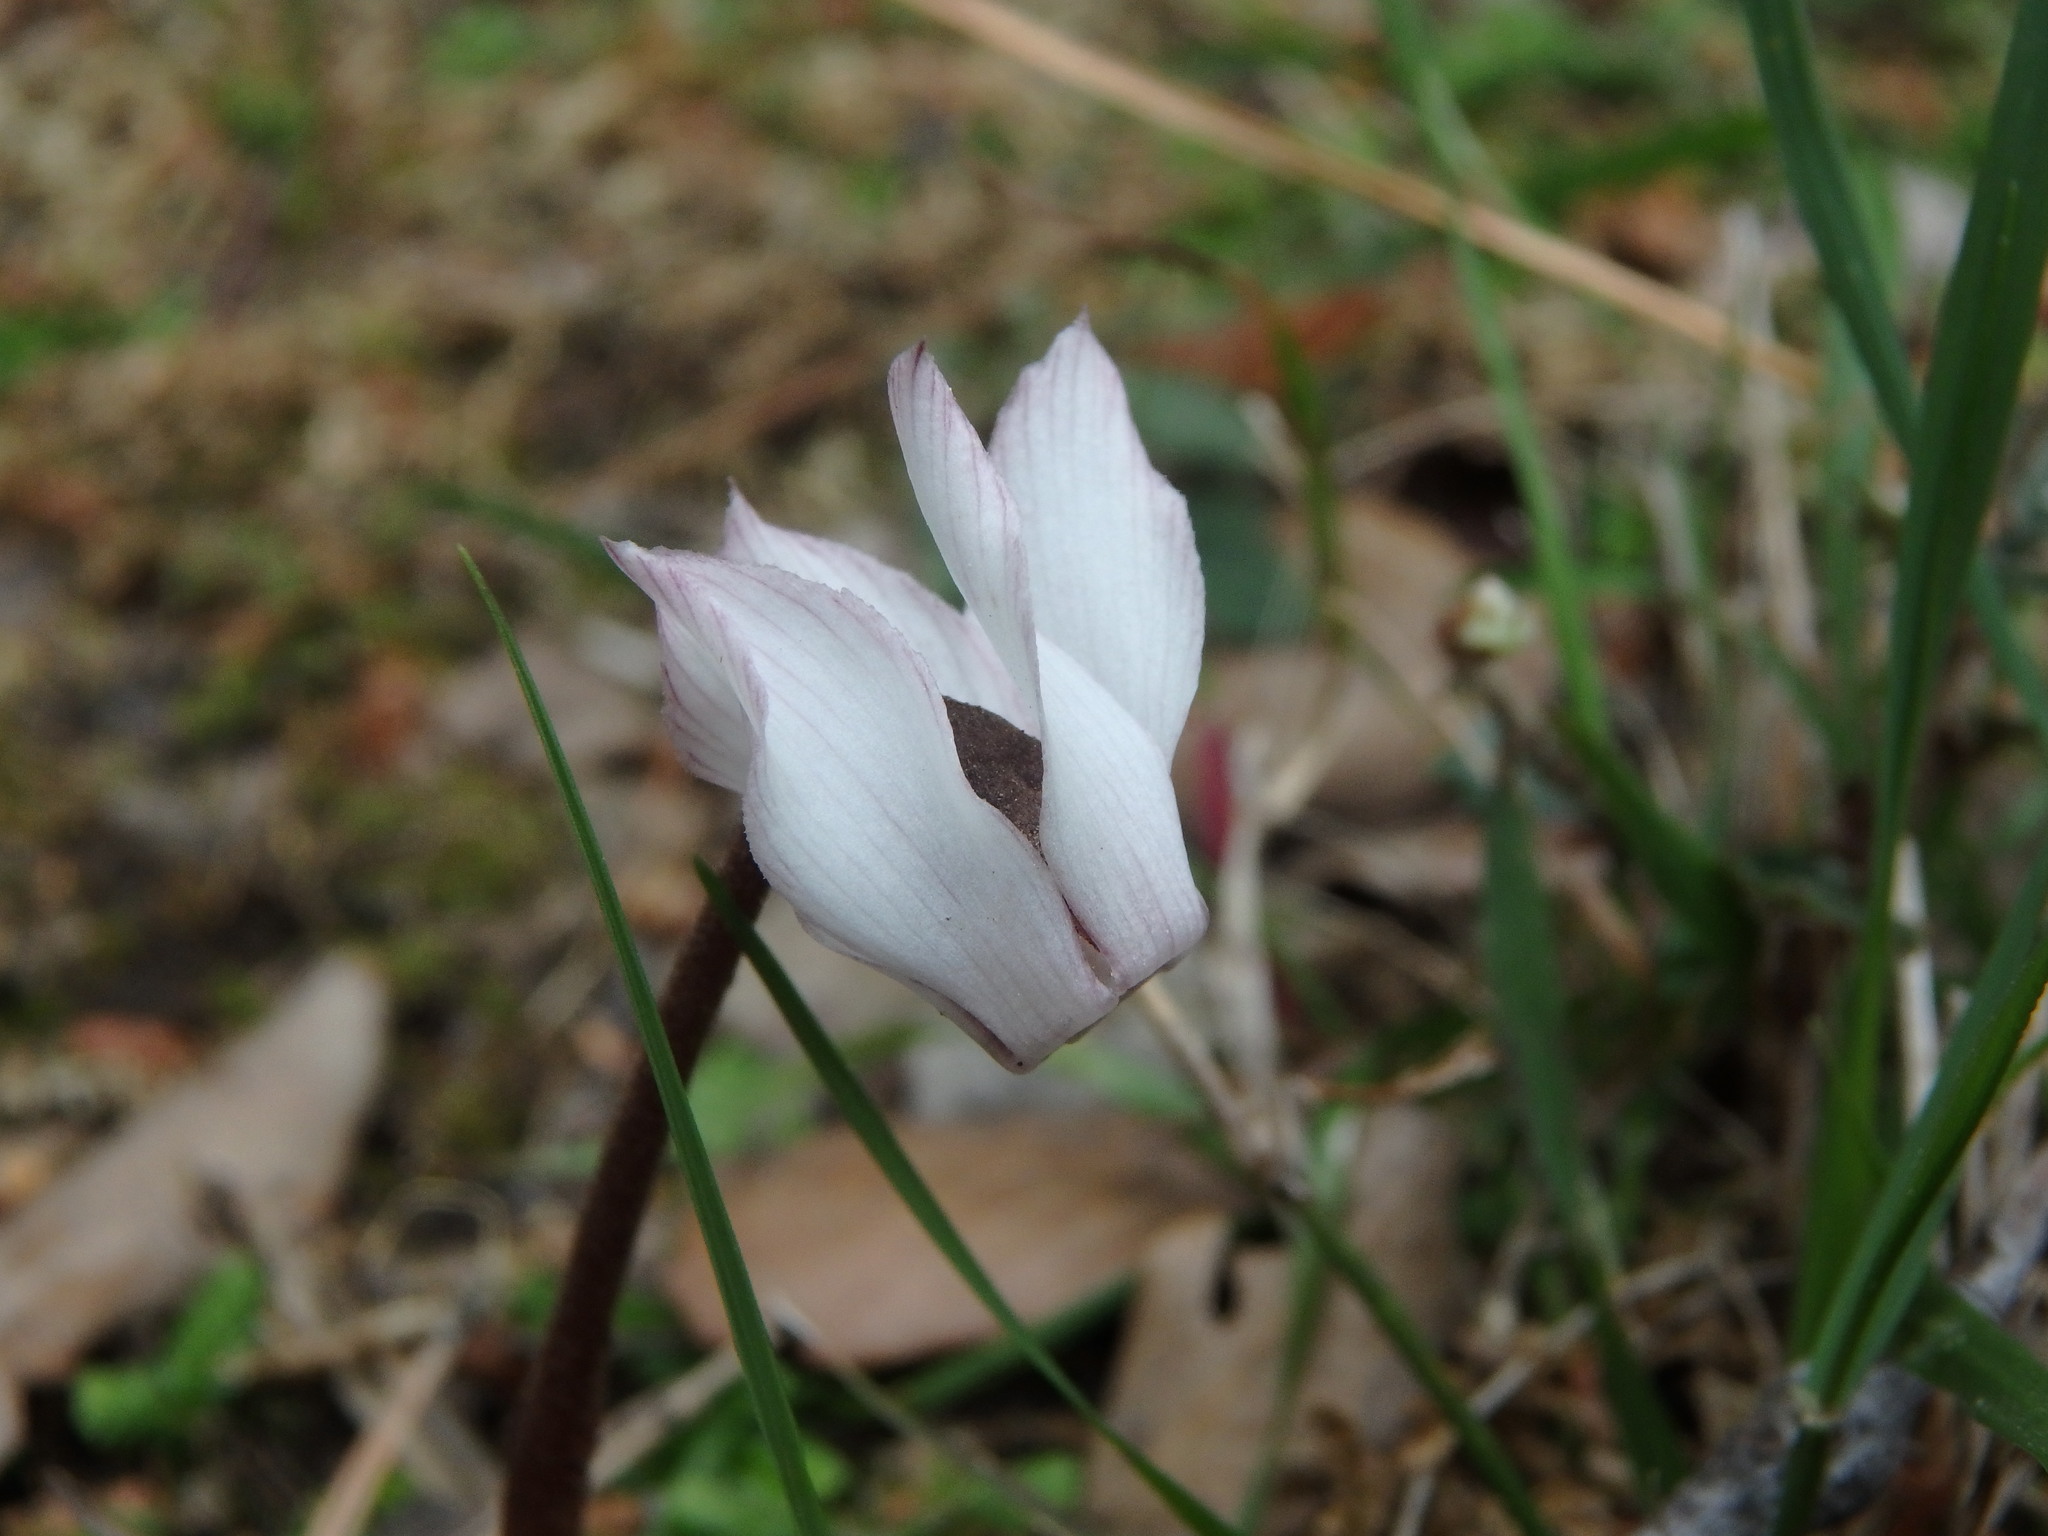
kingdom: Plantae
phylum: Tracheophyta
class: Magnoliopsida
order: Ericales
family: Primulaceae
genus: Cyclamen
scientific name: Cyclamen balearicum
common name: Majorca cyclamen
